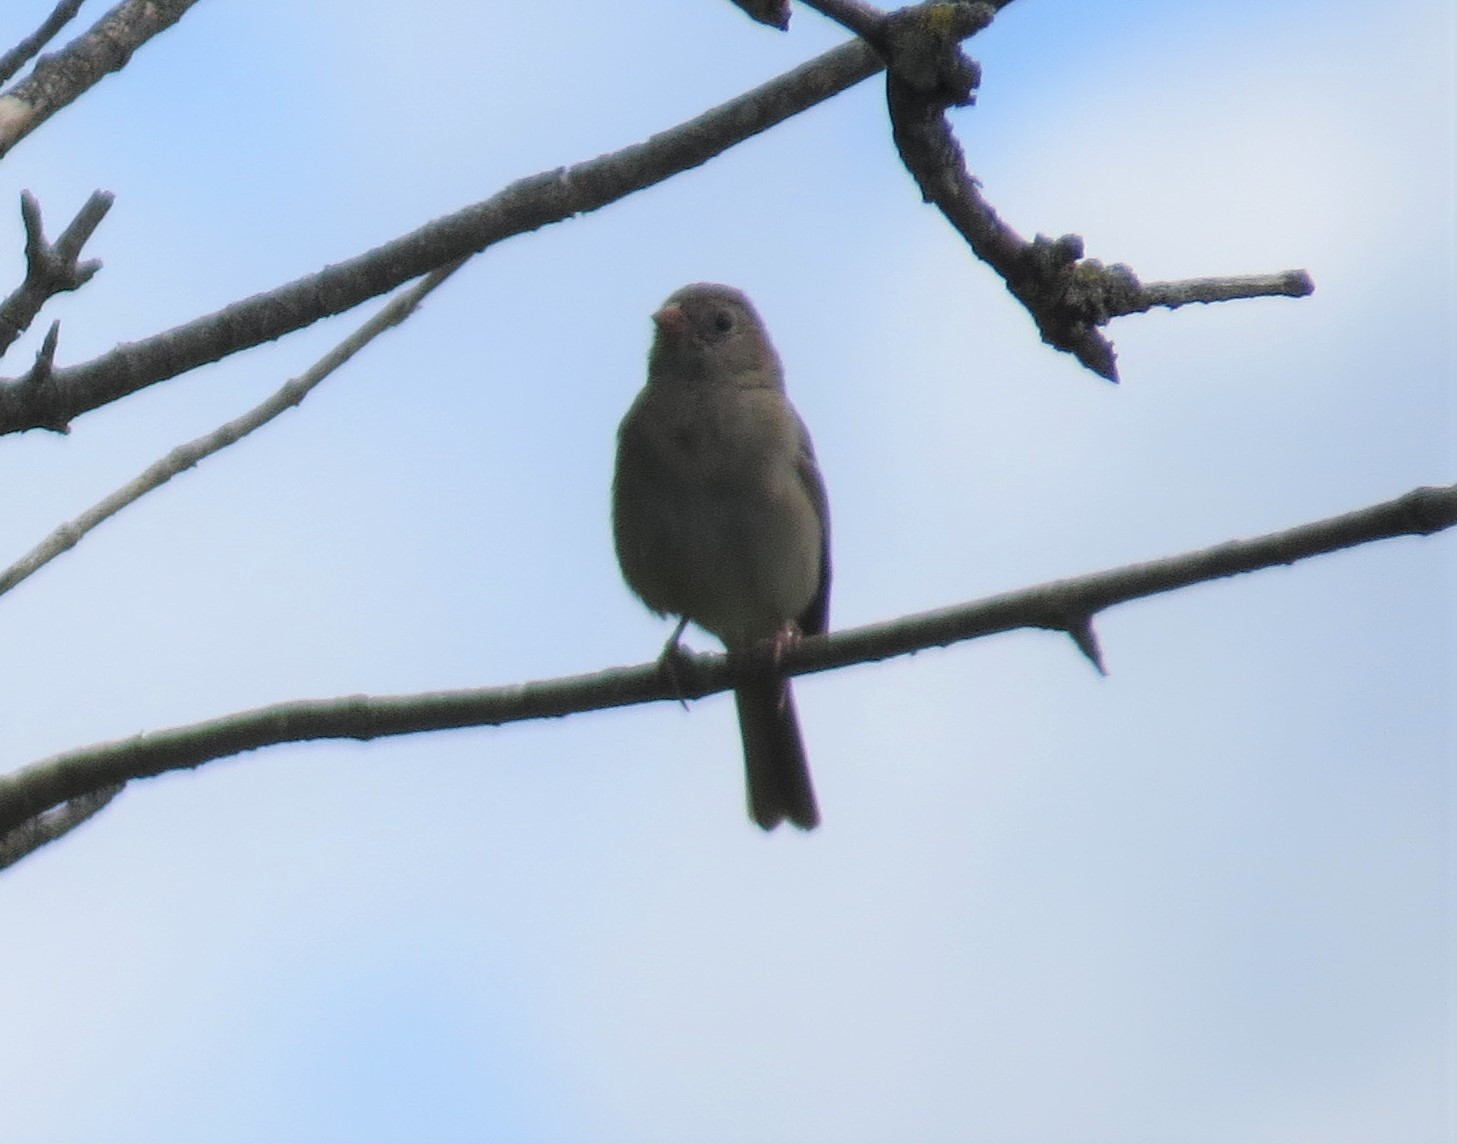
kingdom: Animalia
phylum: Chordata
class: Aves
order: Passeriformes
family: Passerellidae
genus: Spizella
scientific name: Spizella pusilla
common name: Field sparrow
